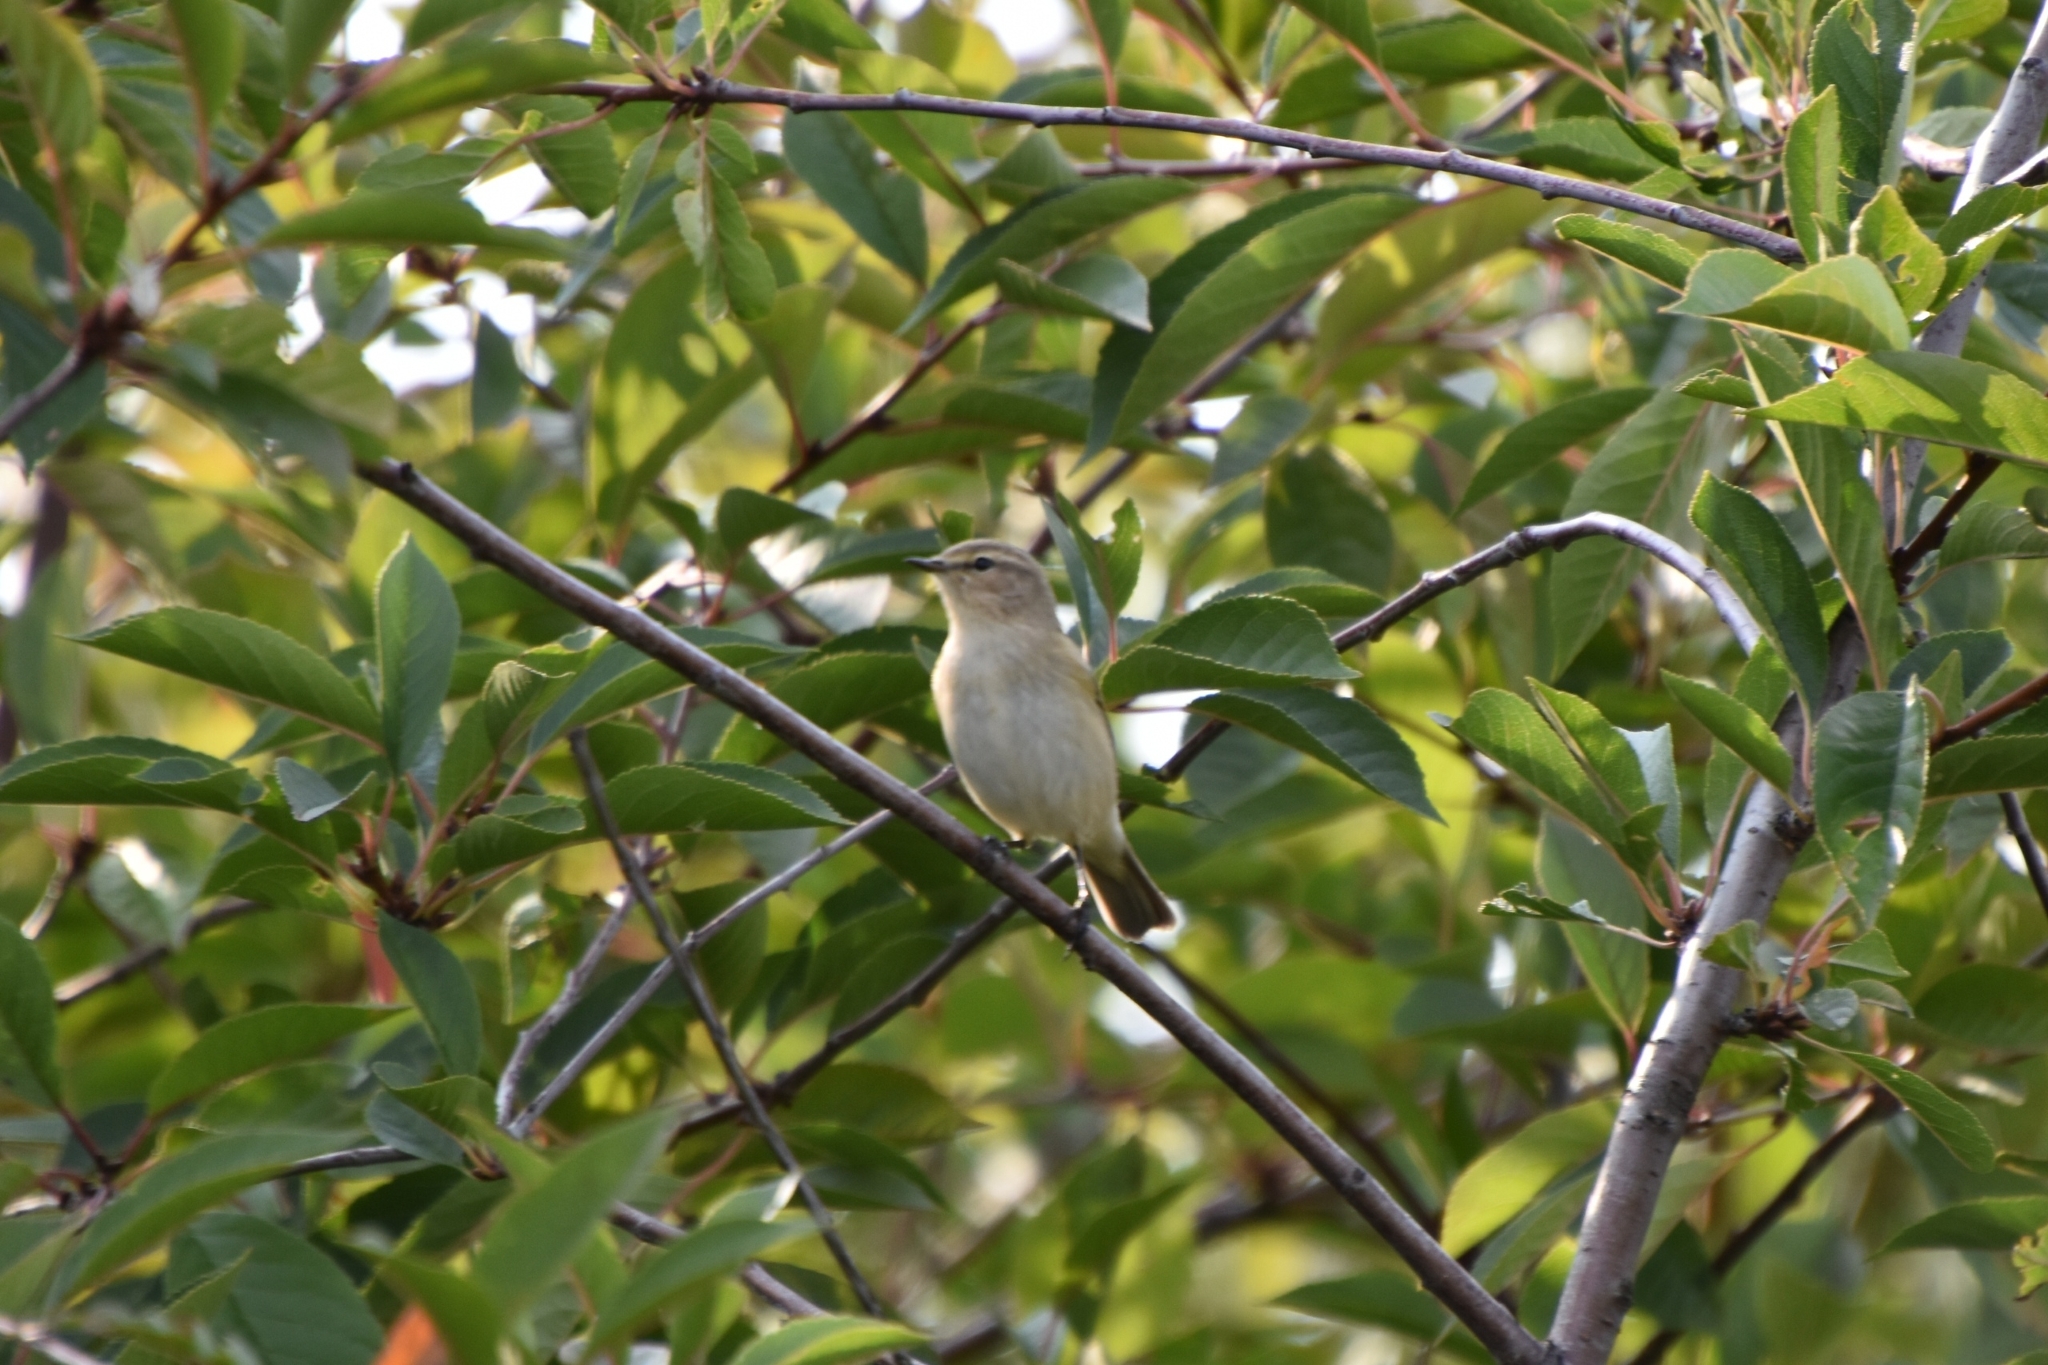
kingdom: Animalia
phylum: Chordata
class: Aves
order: Passeriformes
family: Phylloscopidae
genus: Phylloscopus
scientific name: Phylloscopus collybita
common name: Common chiffchaff
